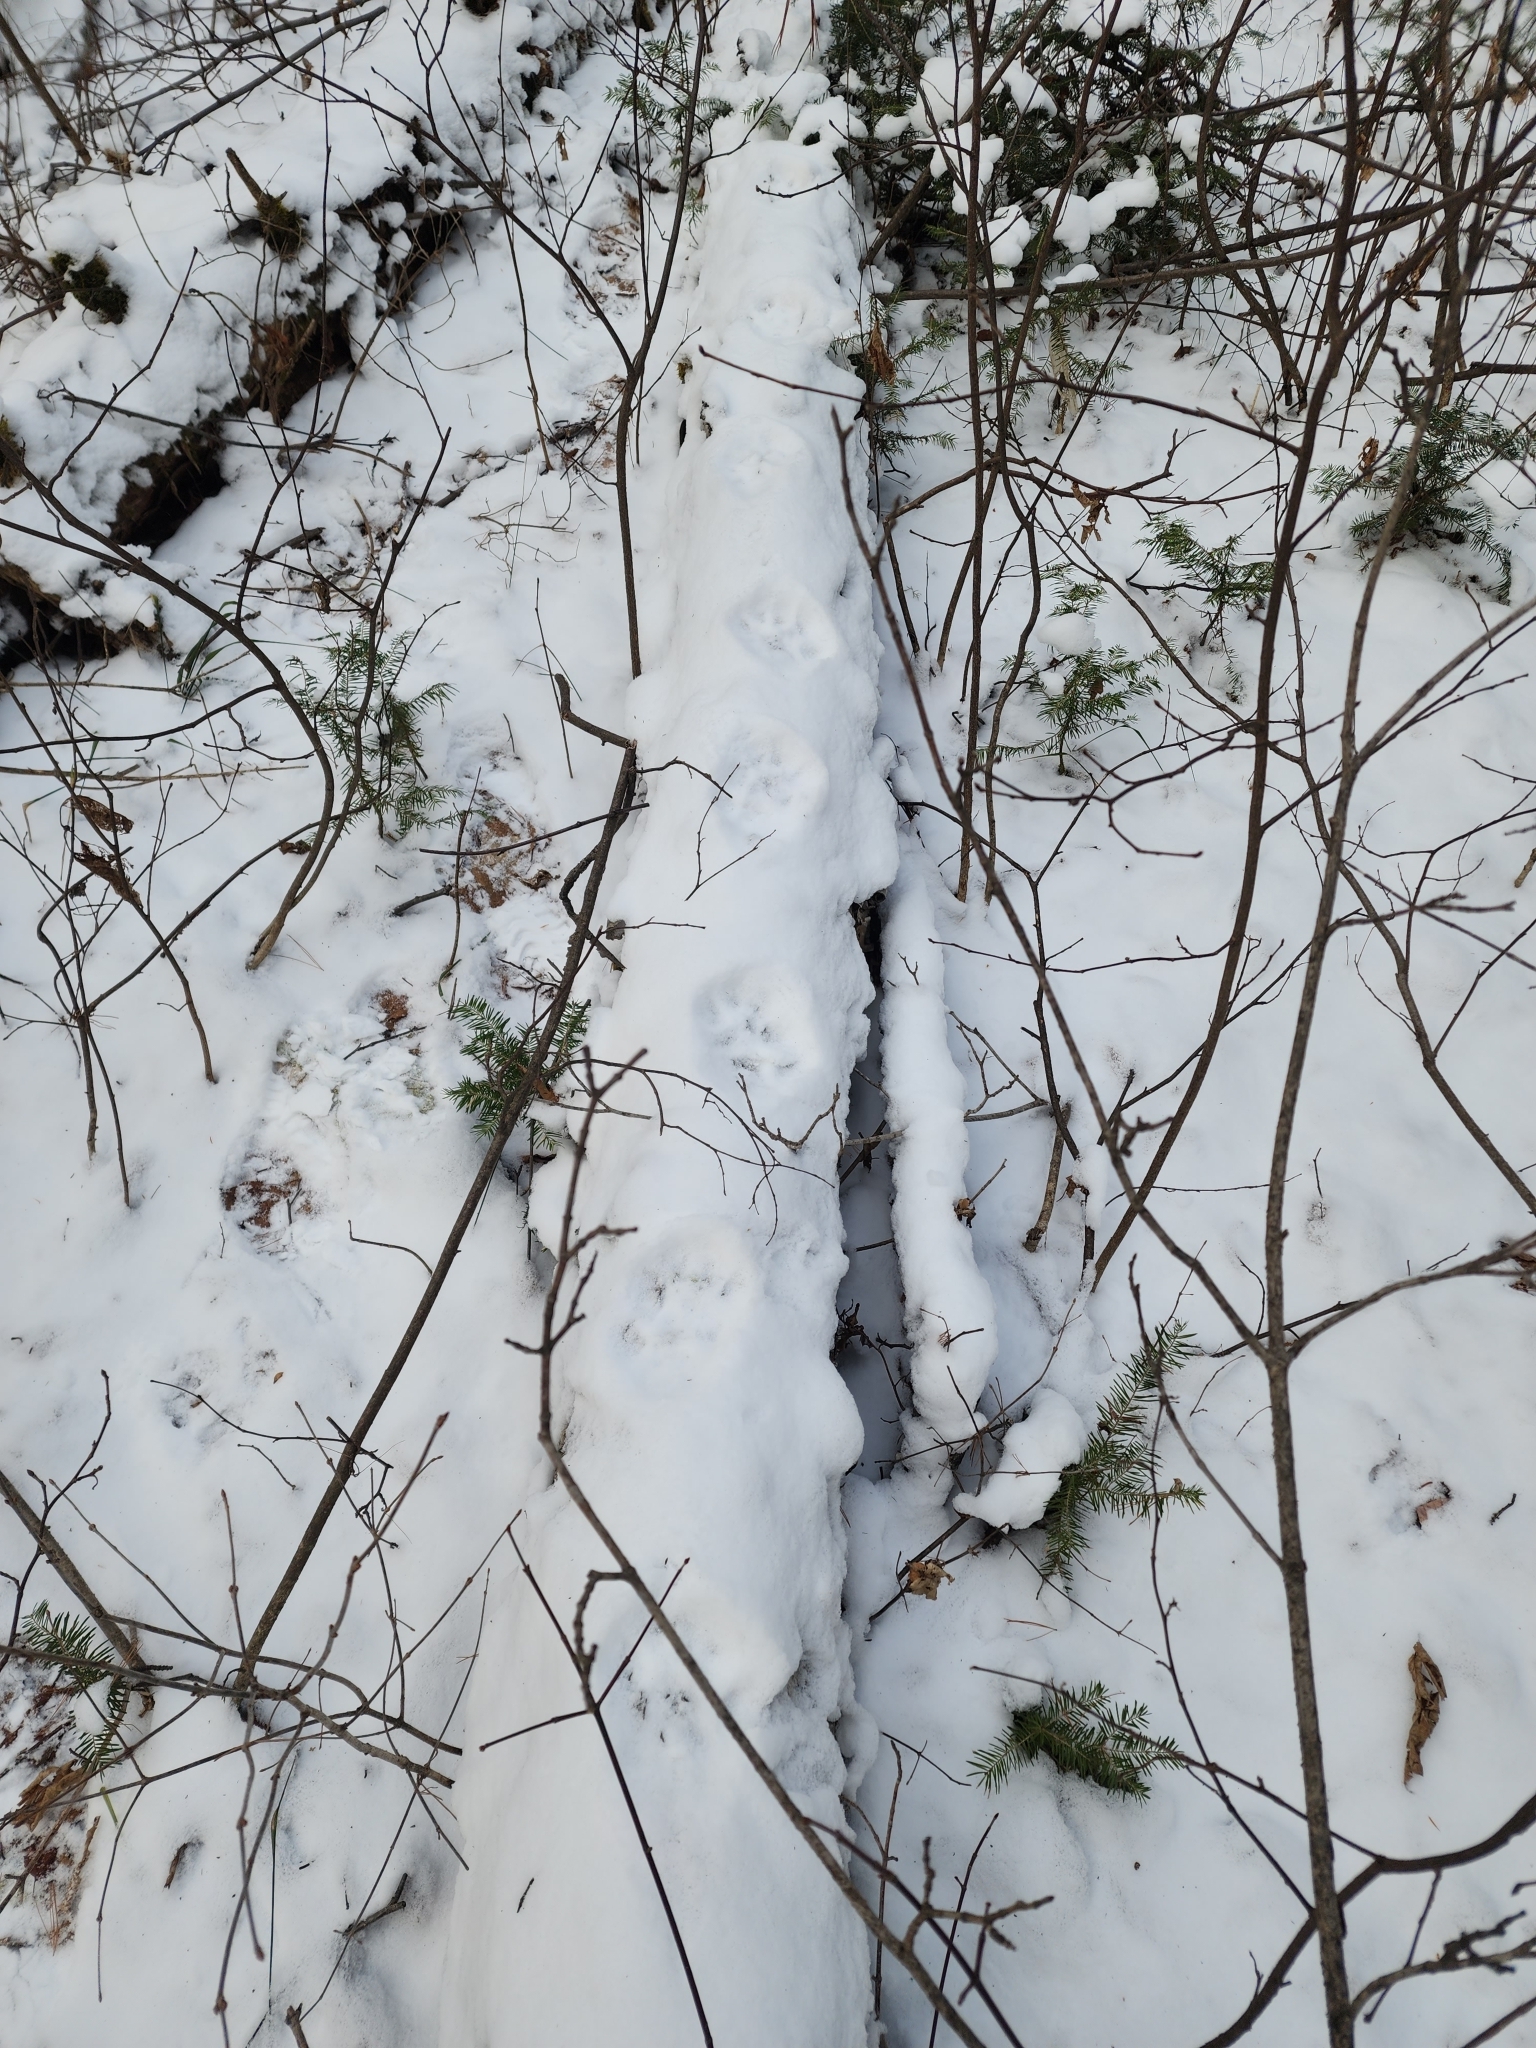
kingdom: Animalia
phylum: Chordata
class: Mammalia
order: Carnivora
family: Felidae
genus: Lynx
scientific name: Lynx canadensis
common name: Canadian lynx
